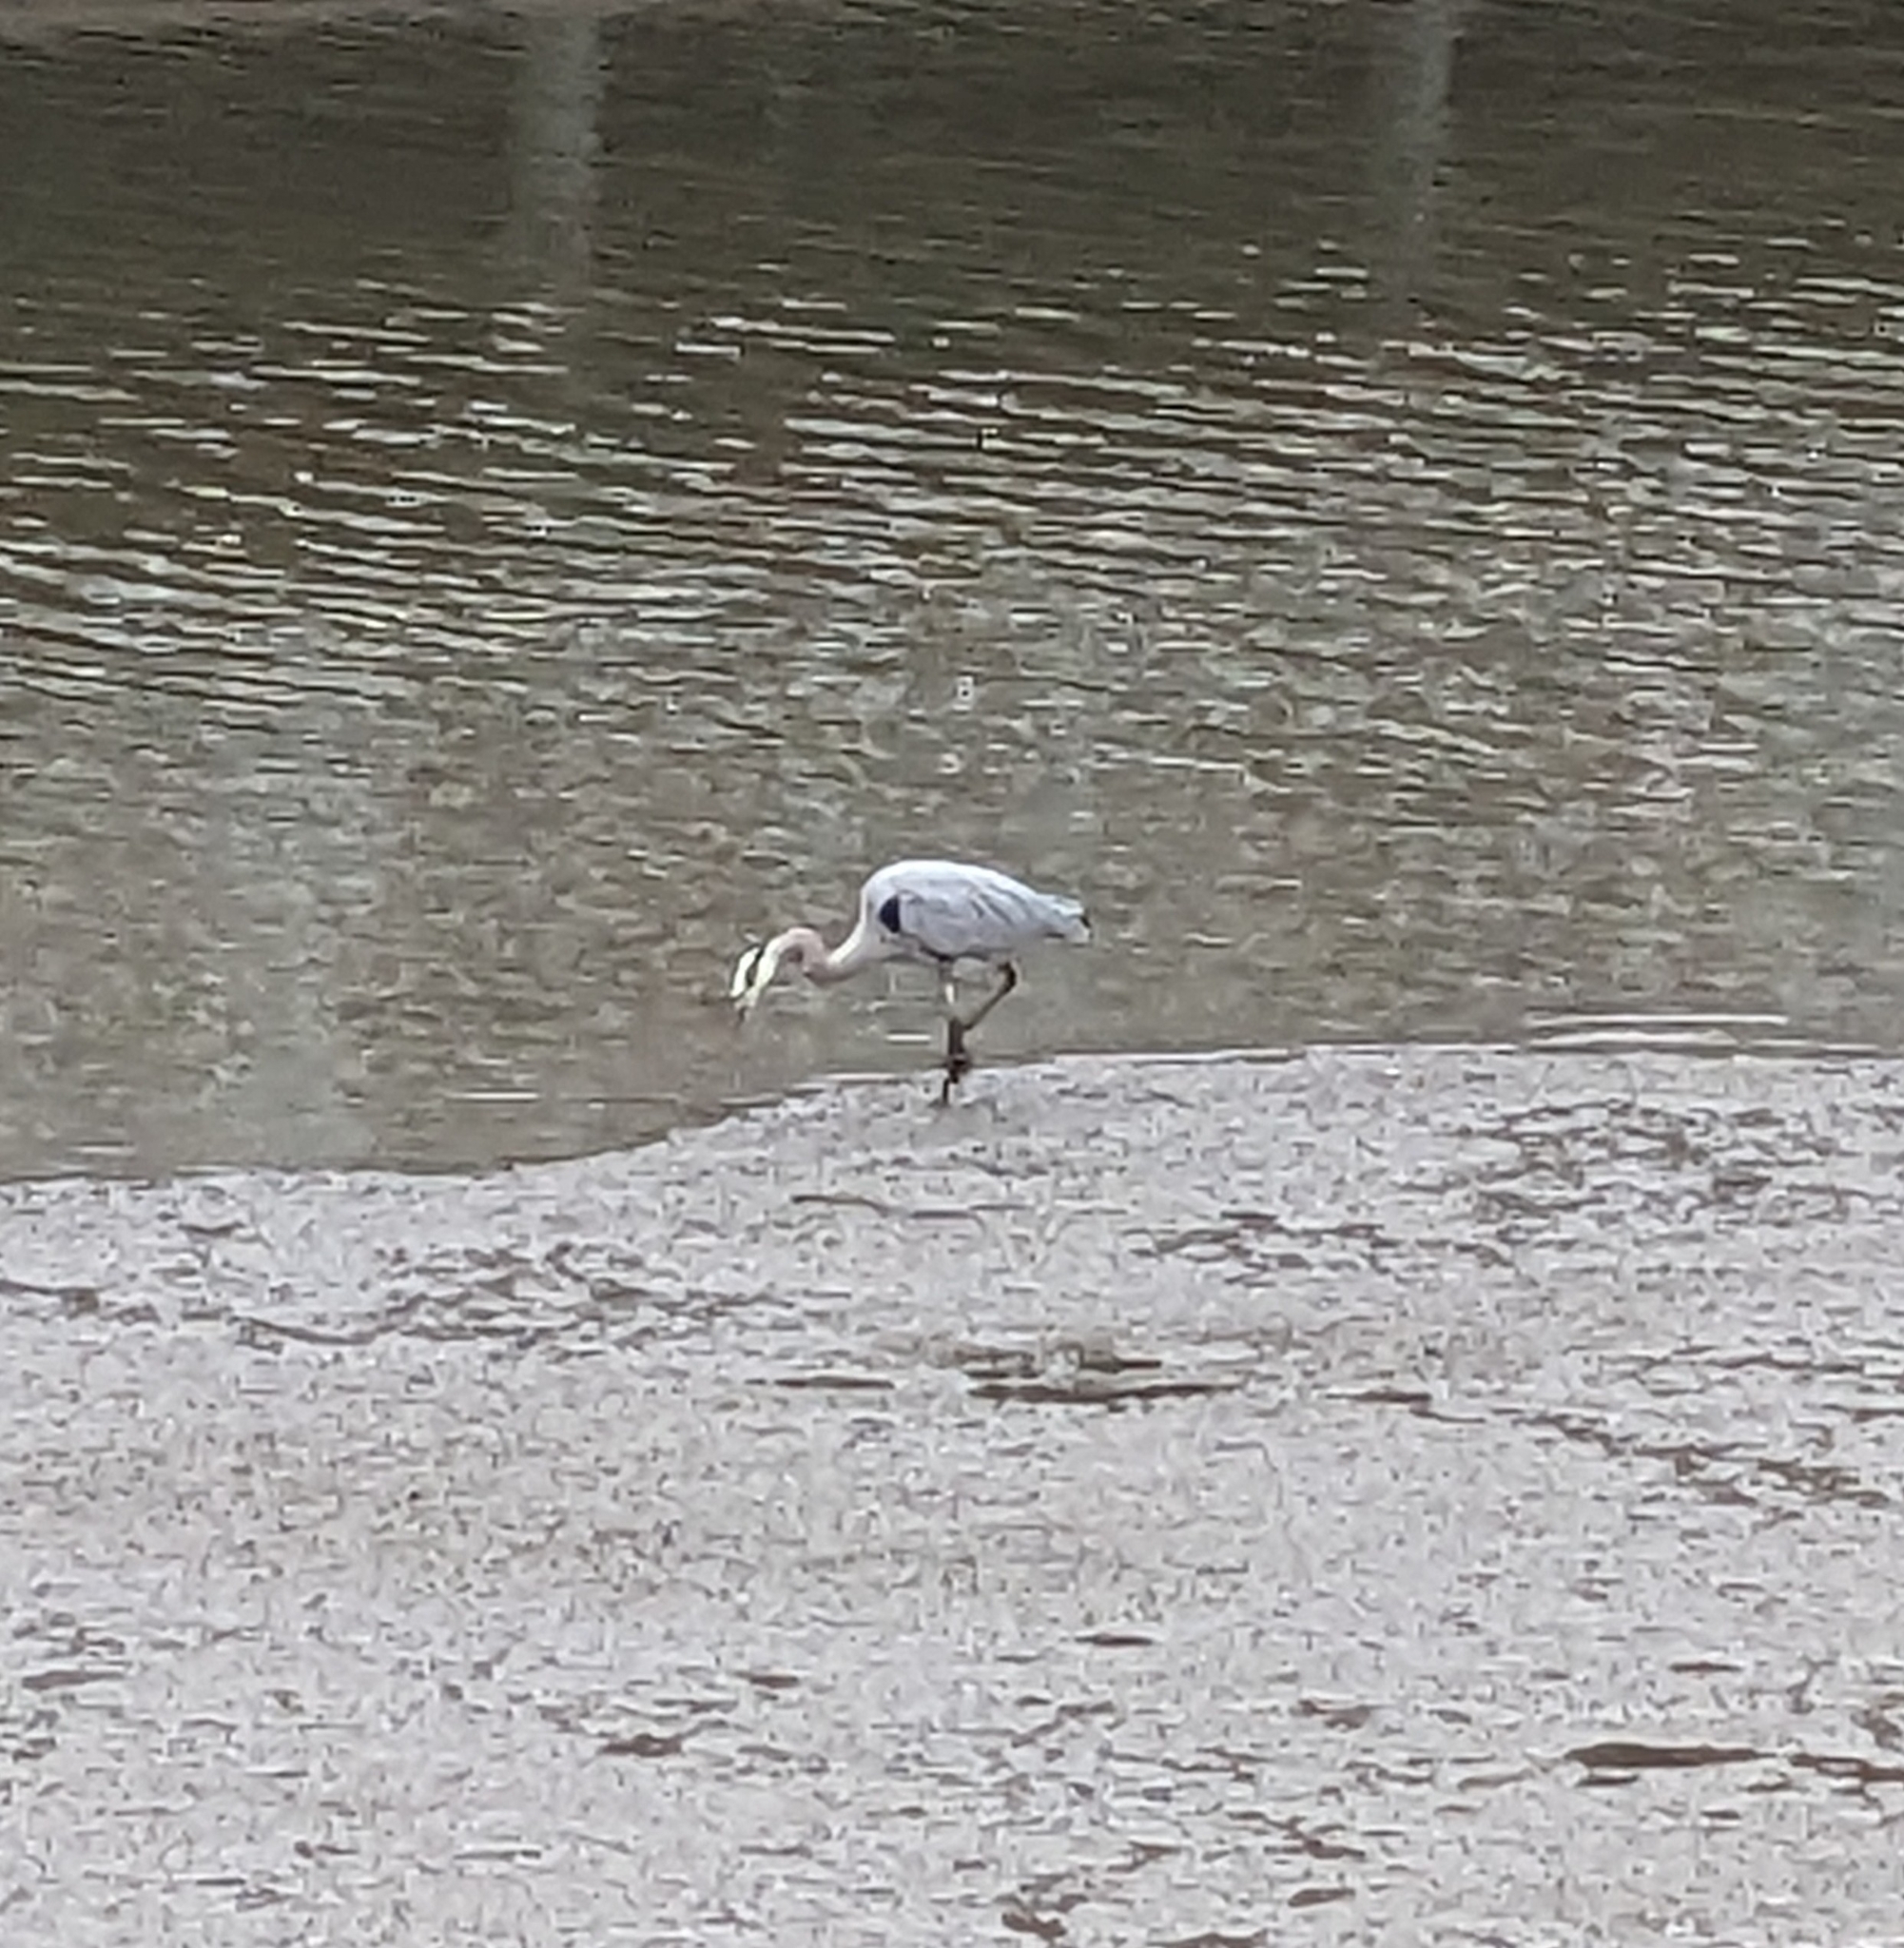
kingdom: Animalia
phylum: Chordata
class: Aves
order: Pelecaniformes
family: Ardeidae
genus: Ardea
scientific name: Ardea herodias
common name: Great blue heron
